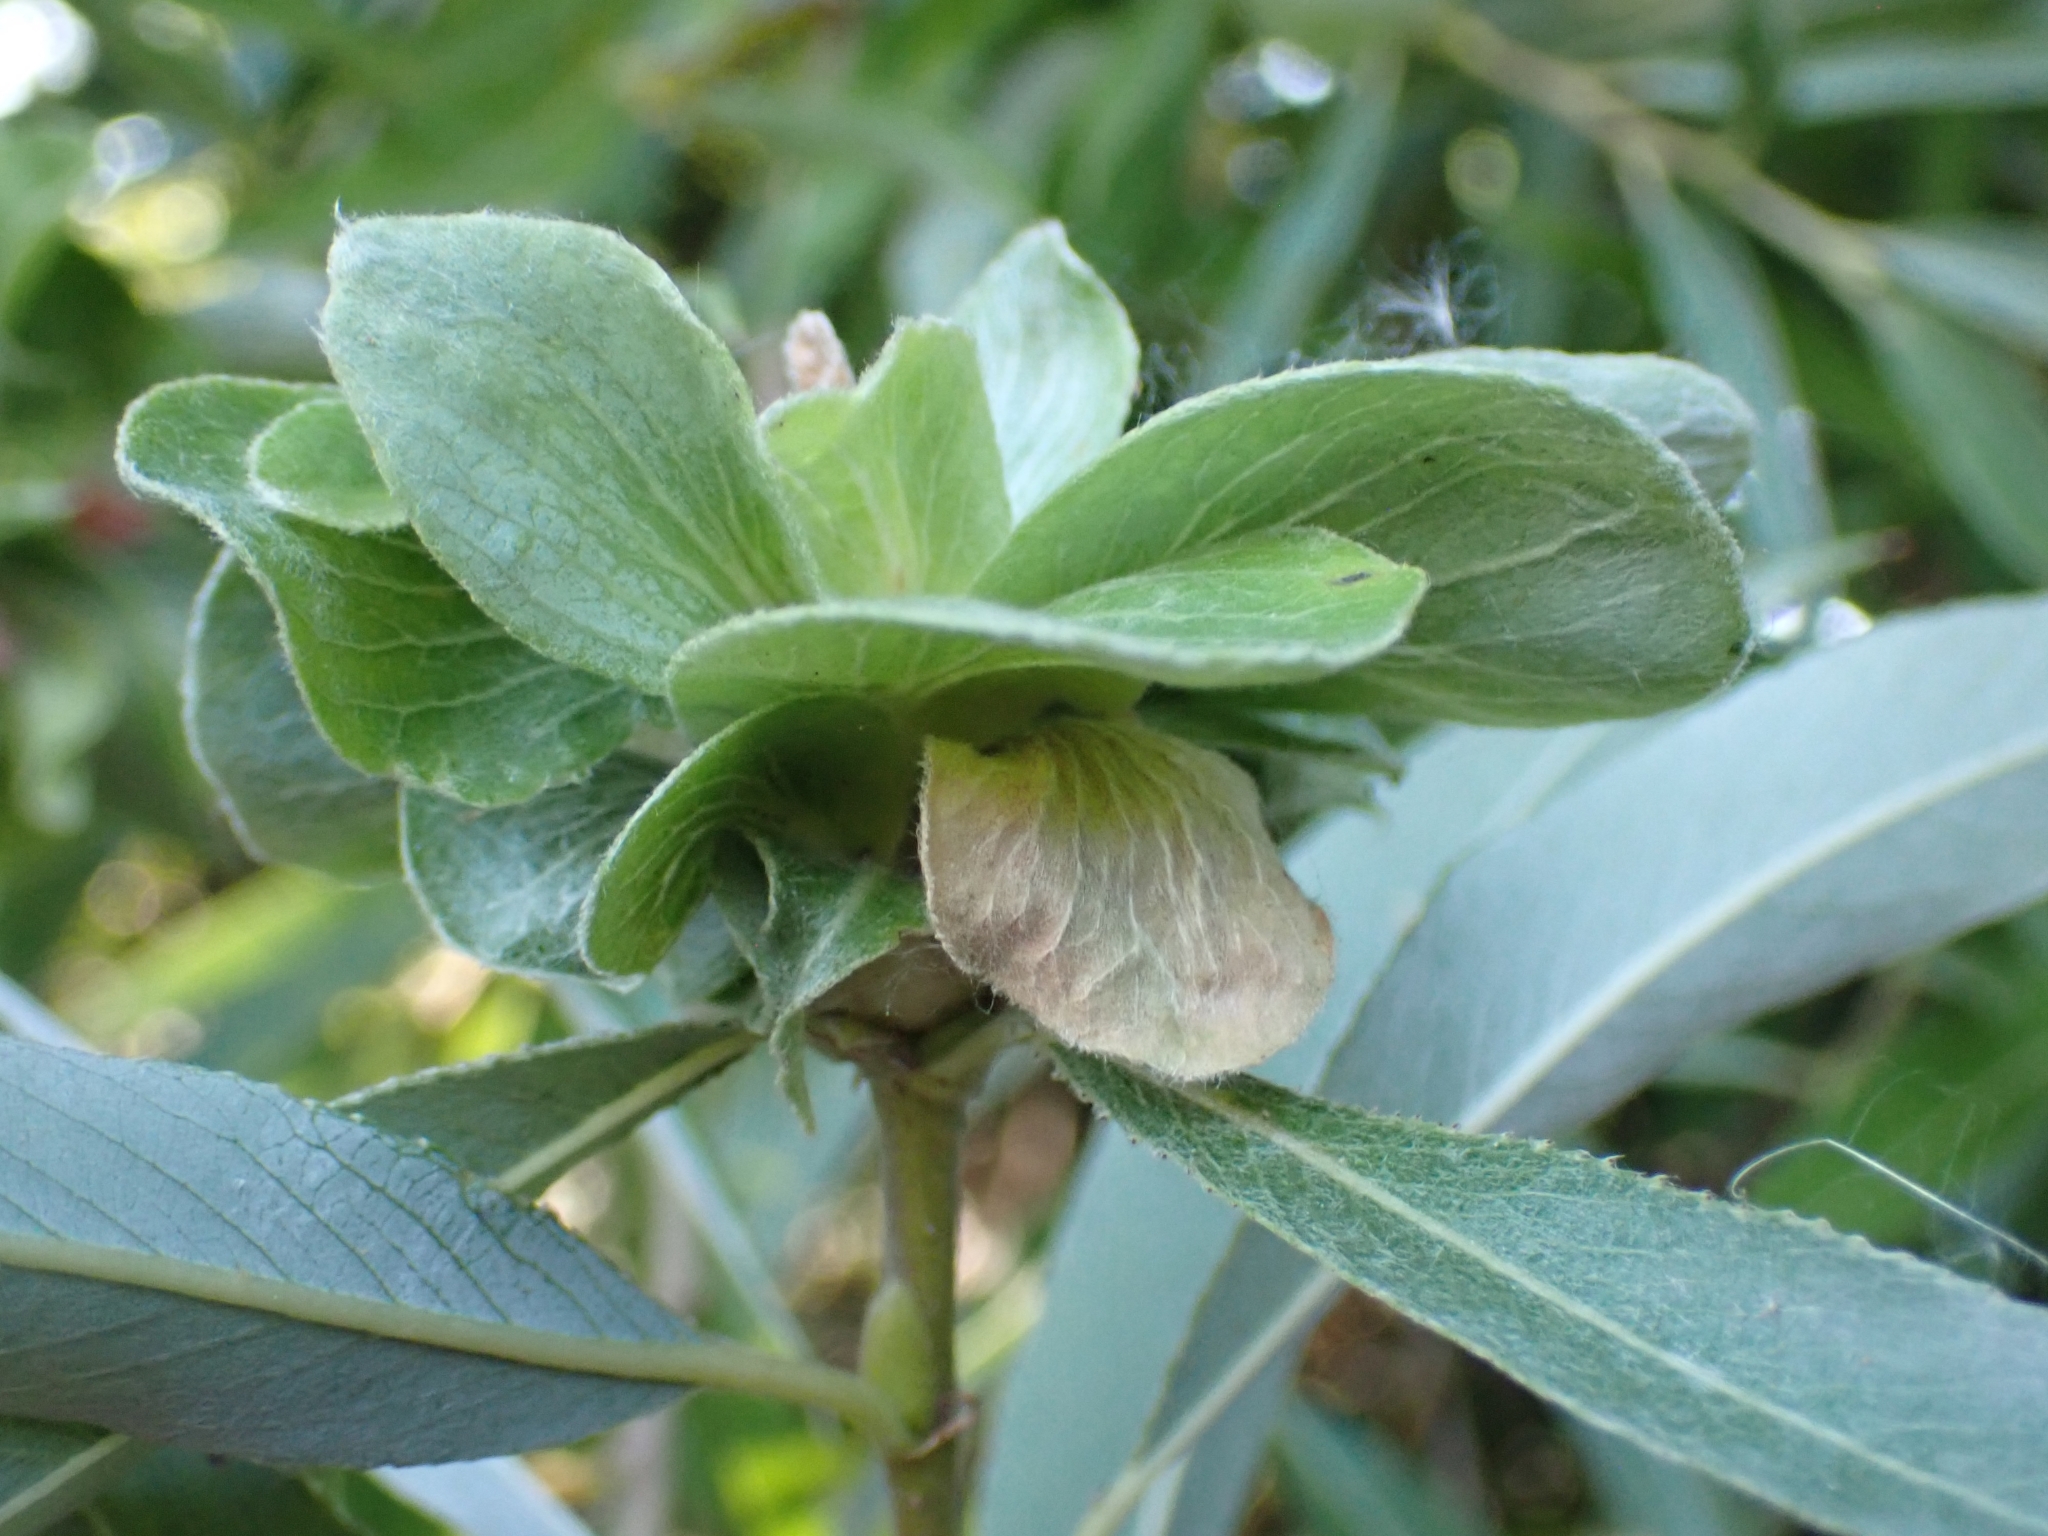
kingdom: Animalia
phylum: Arthropoda
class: Insecta
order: Diptera
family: Cecidomyiidae
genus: Rabdophaga
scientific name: Rabdophaga rosaria
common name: Willow rose gall midge
